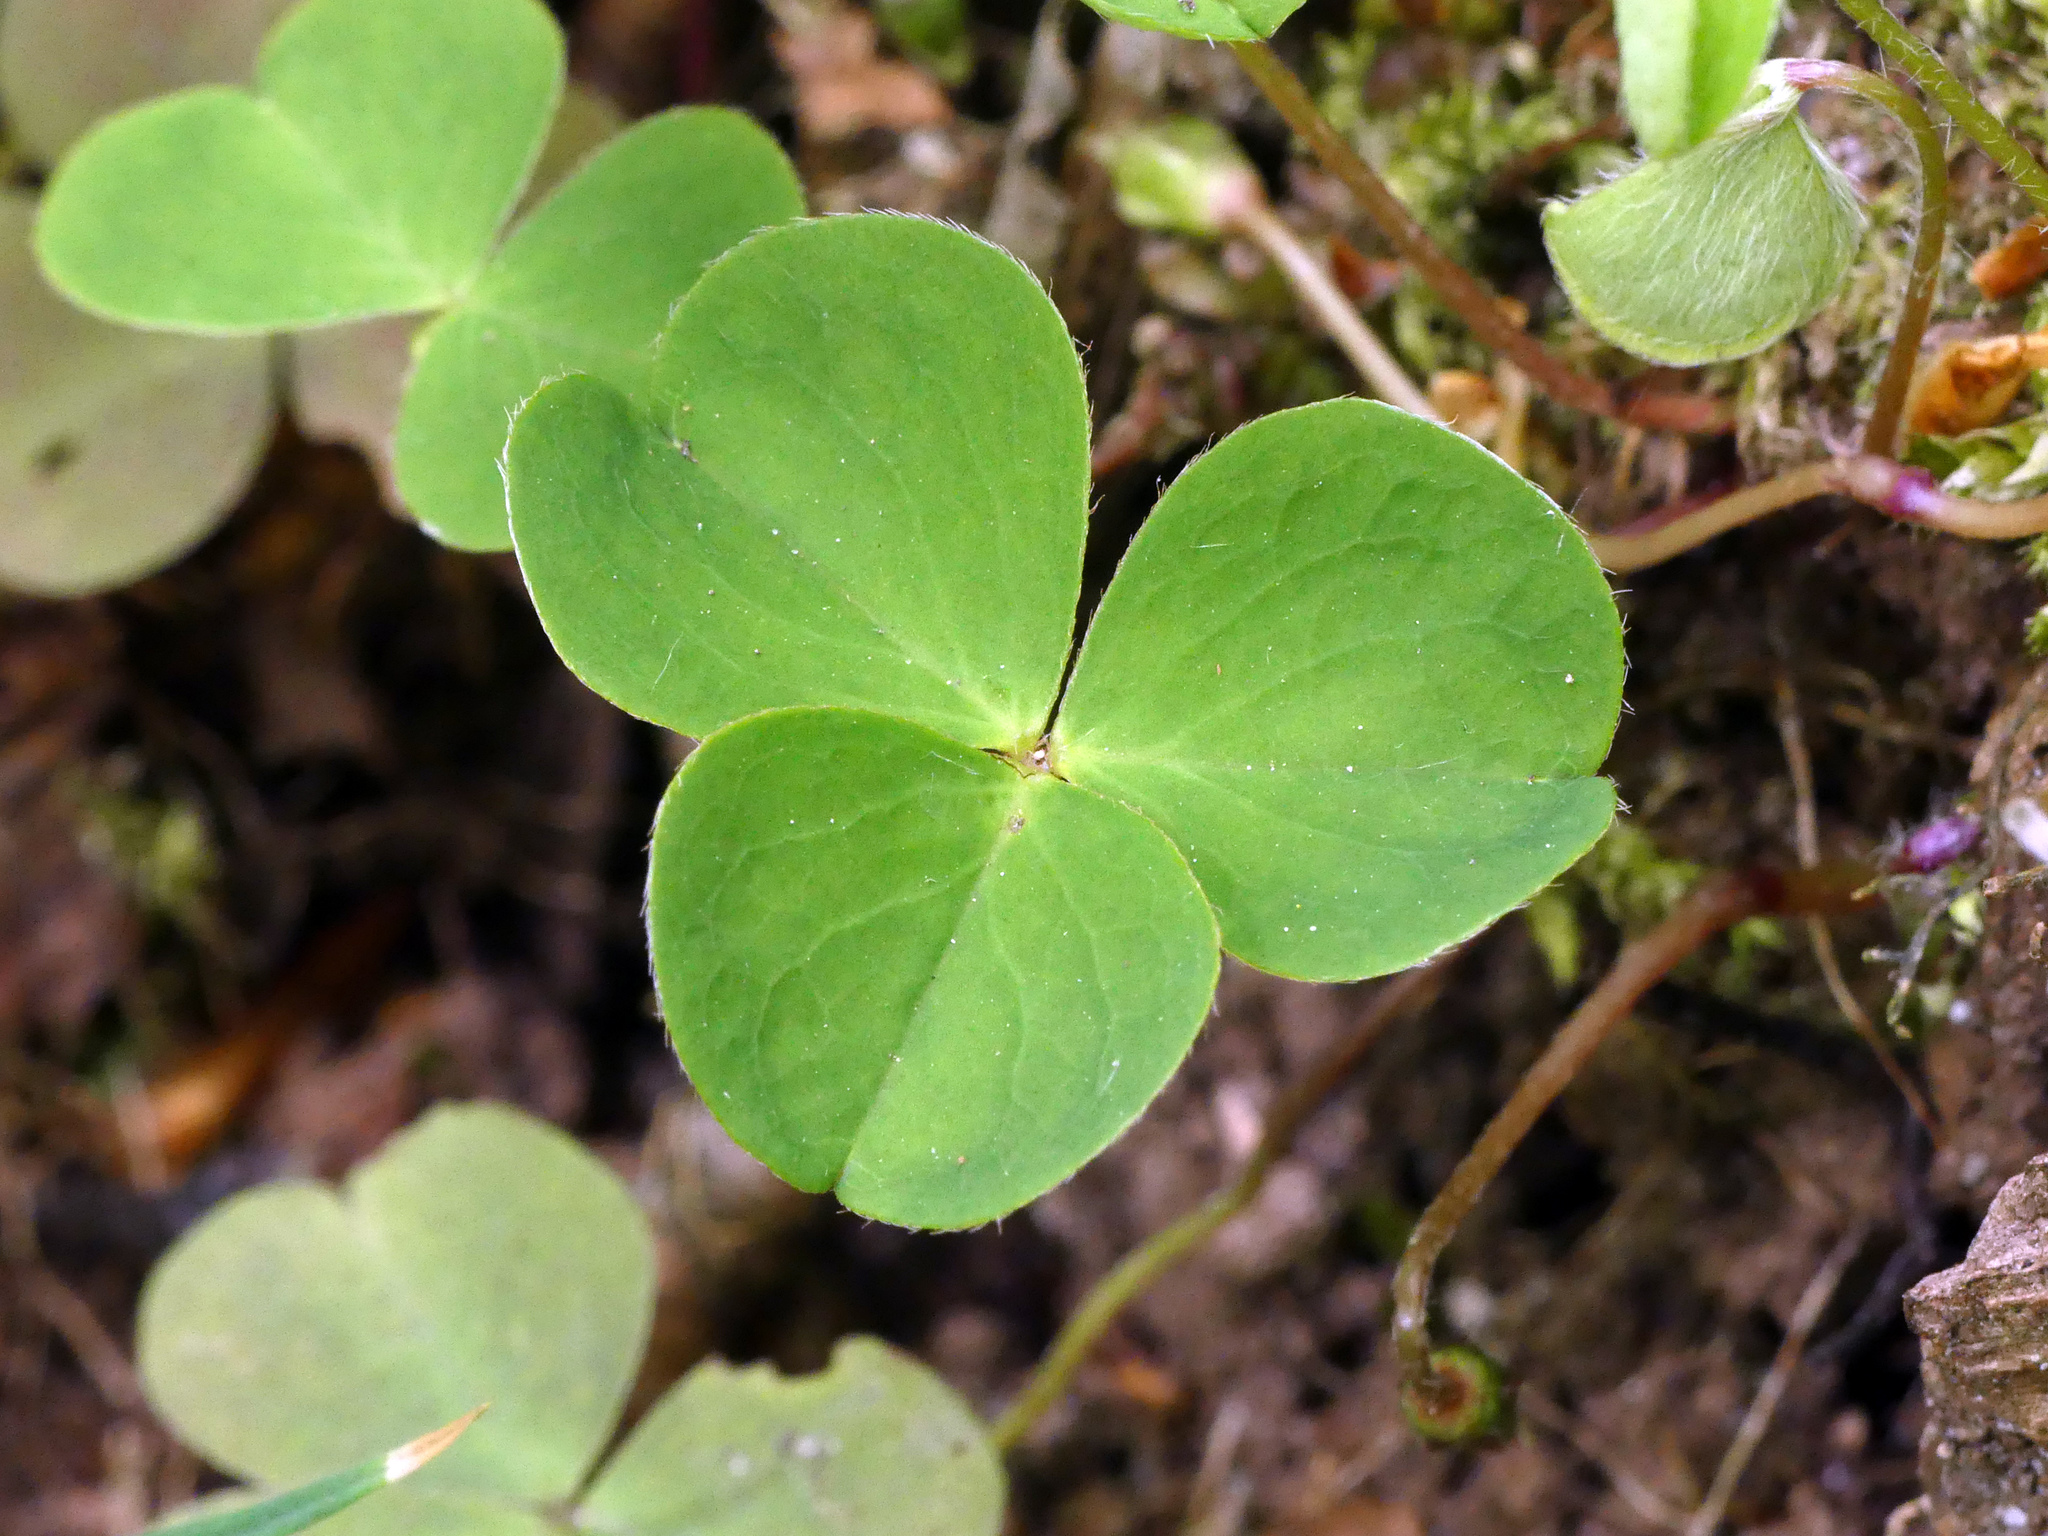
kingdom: Plantae
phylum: Tracheophyta
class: Magnoliopsida
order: Oxalidales
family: Oxalidaceae
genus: Oxalis
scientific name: Oxalis acetosella
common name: Wood-sorrel
